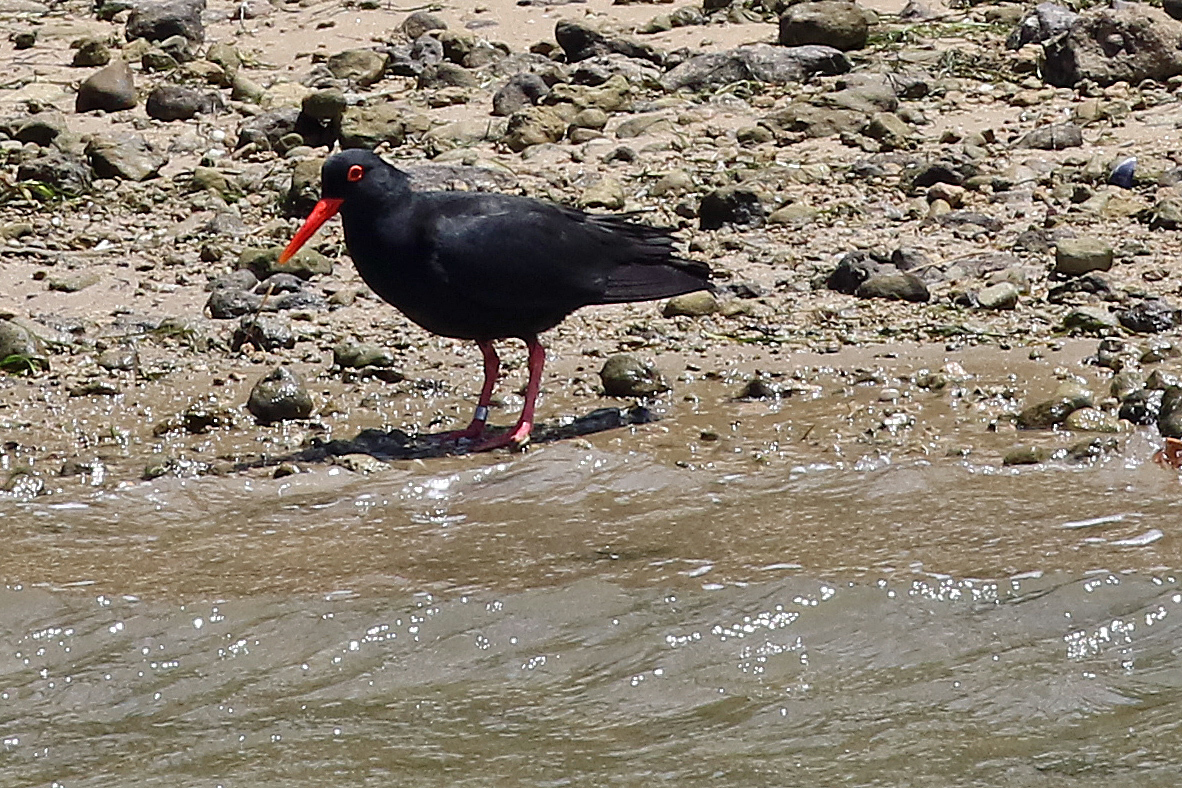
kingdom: Animalia
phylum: Chordata
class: Aves
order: Charadriiformes
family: Haematopodidae
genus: Haematopus
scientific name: Haematopus moquini
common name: African oystercatcher
